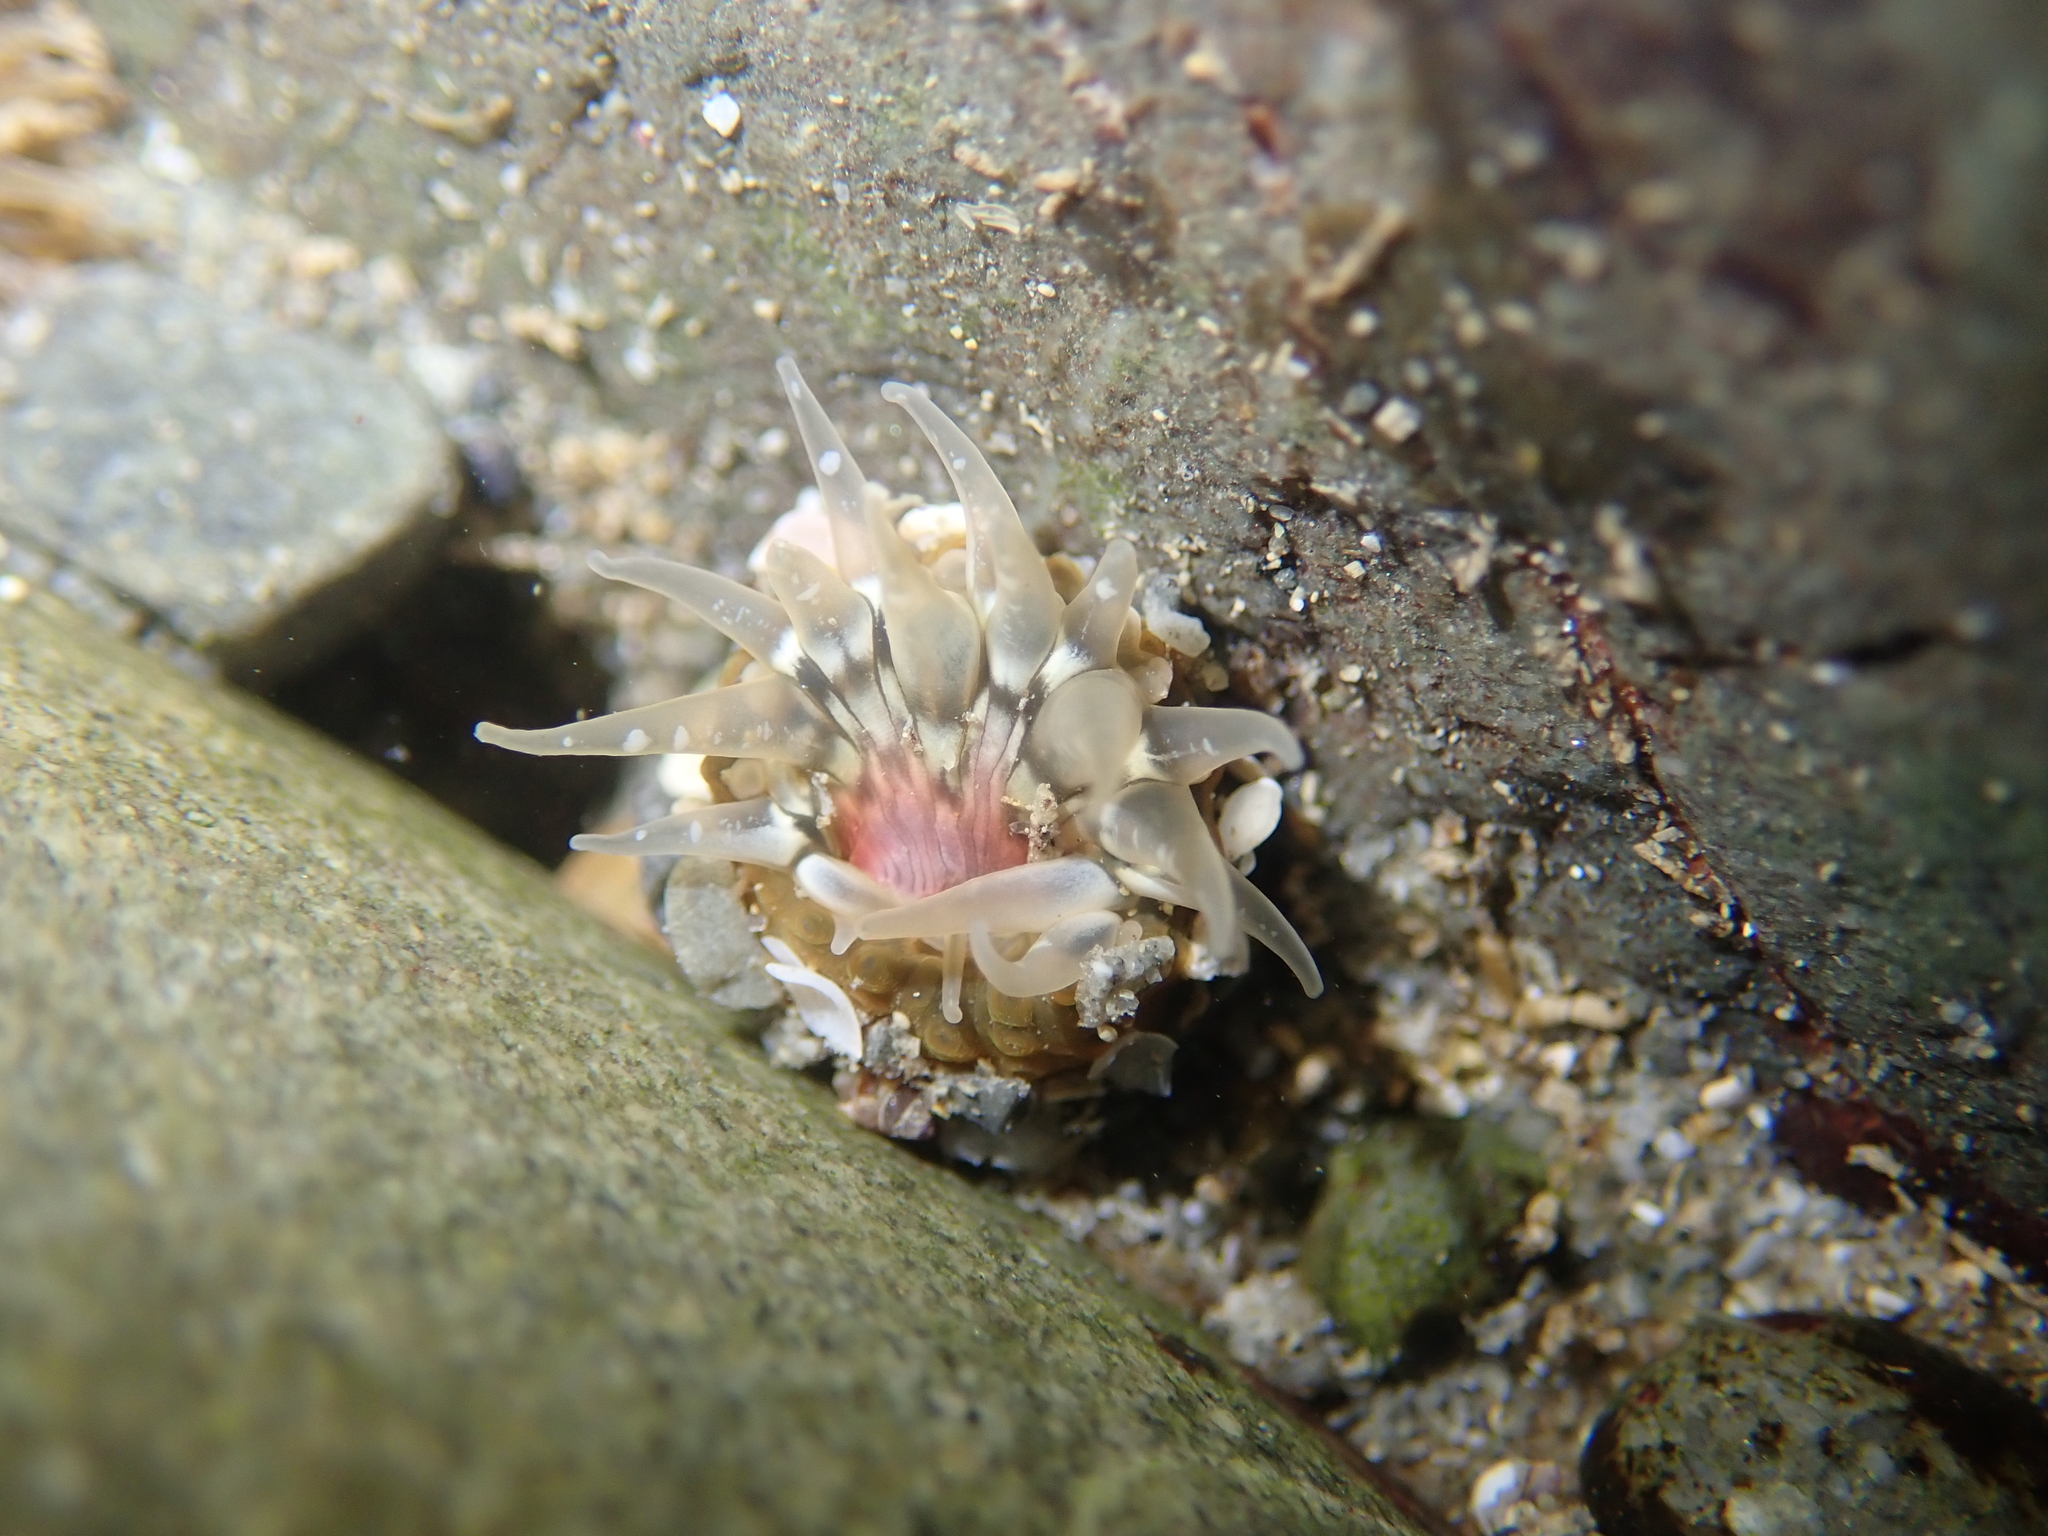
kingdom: Animalia
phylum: Cnidaria
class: Anthozoa
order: Actiniaria
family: Actiniidae
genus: Anthopleura
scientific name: Anthopleura minima
